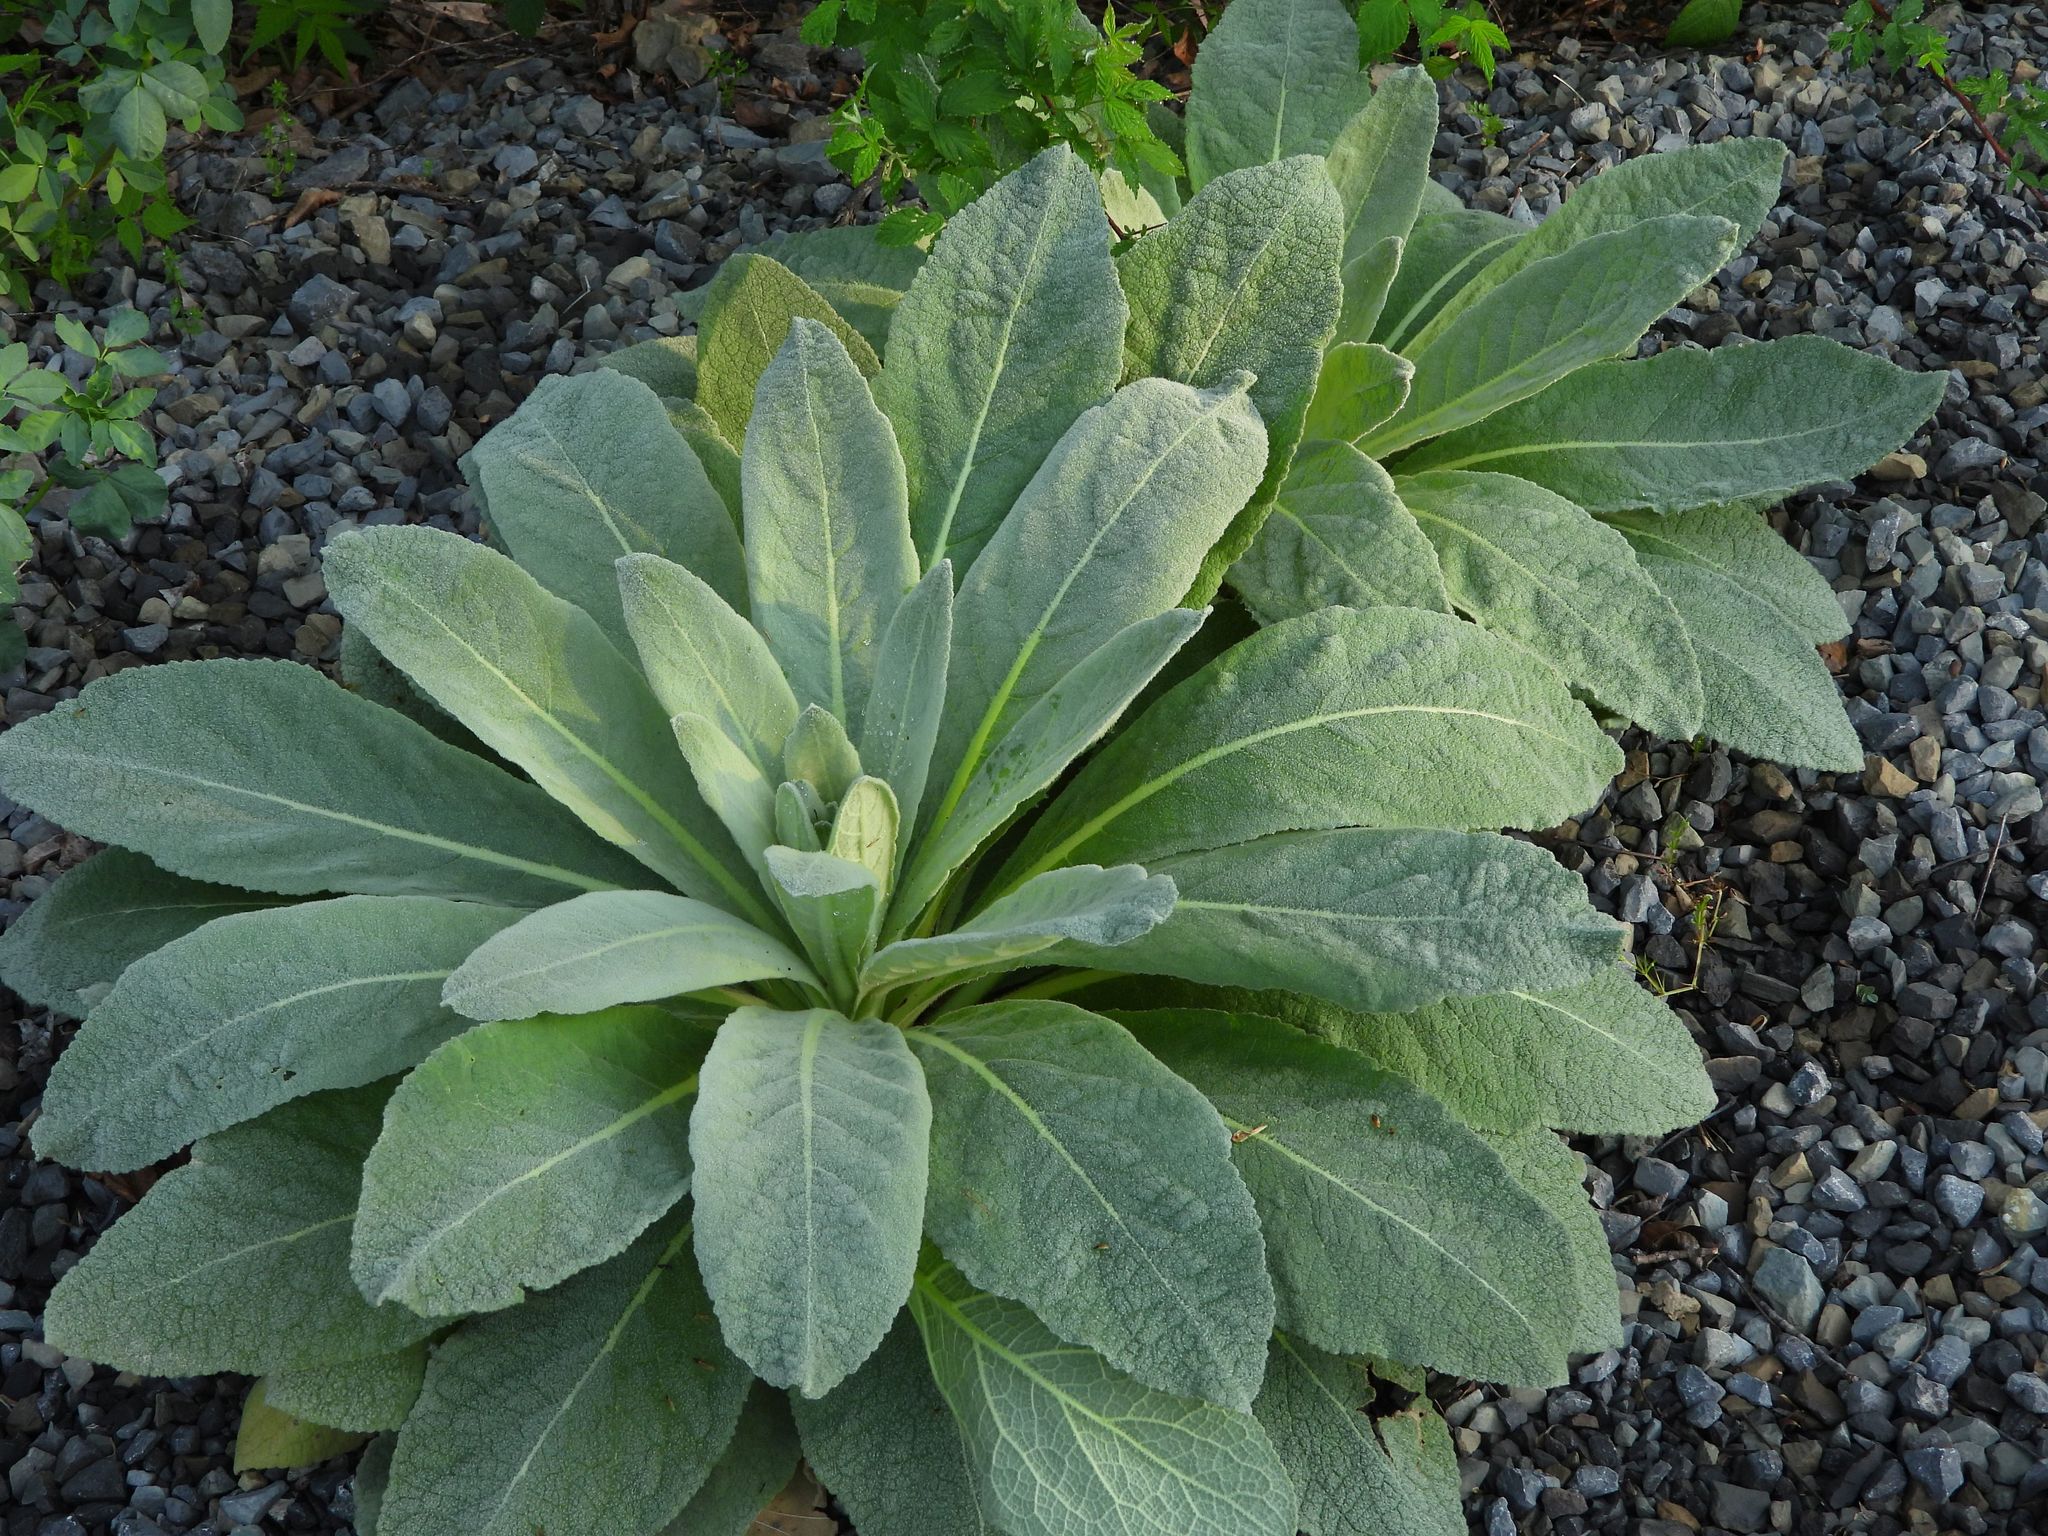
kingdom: Plantae
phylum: Tracheophyta
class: Magnoliopsida
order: Lamiales
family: Scrophulariaceae
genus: Verbascum
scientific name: Verbascum thapsus
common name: Common mullein
